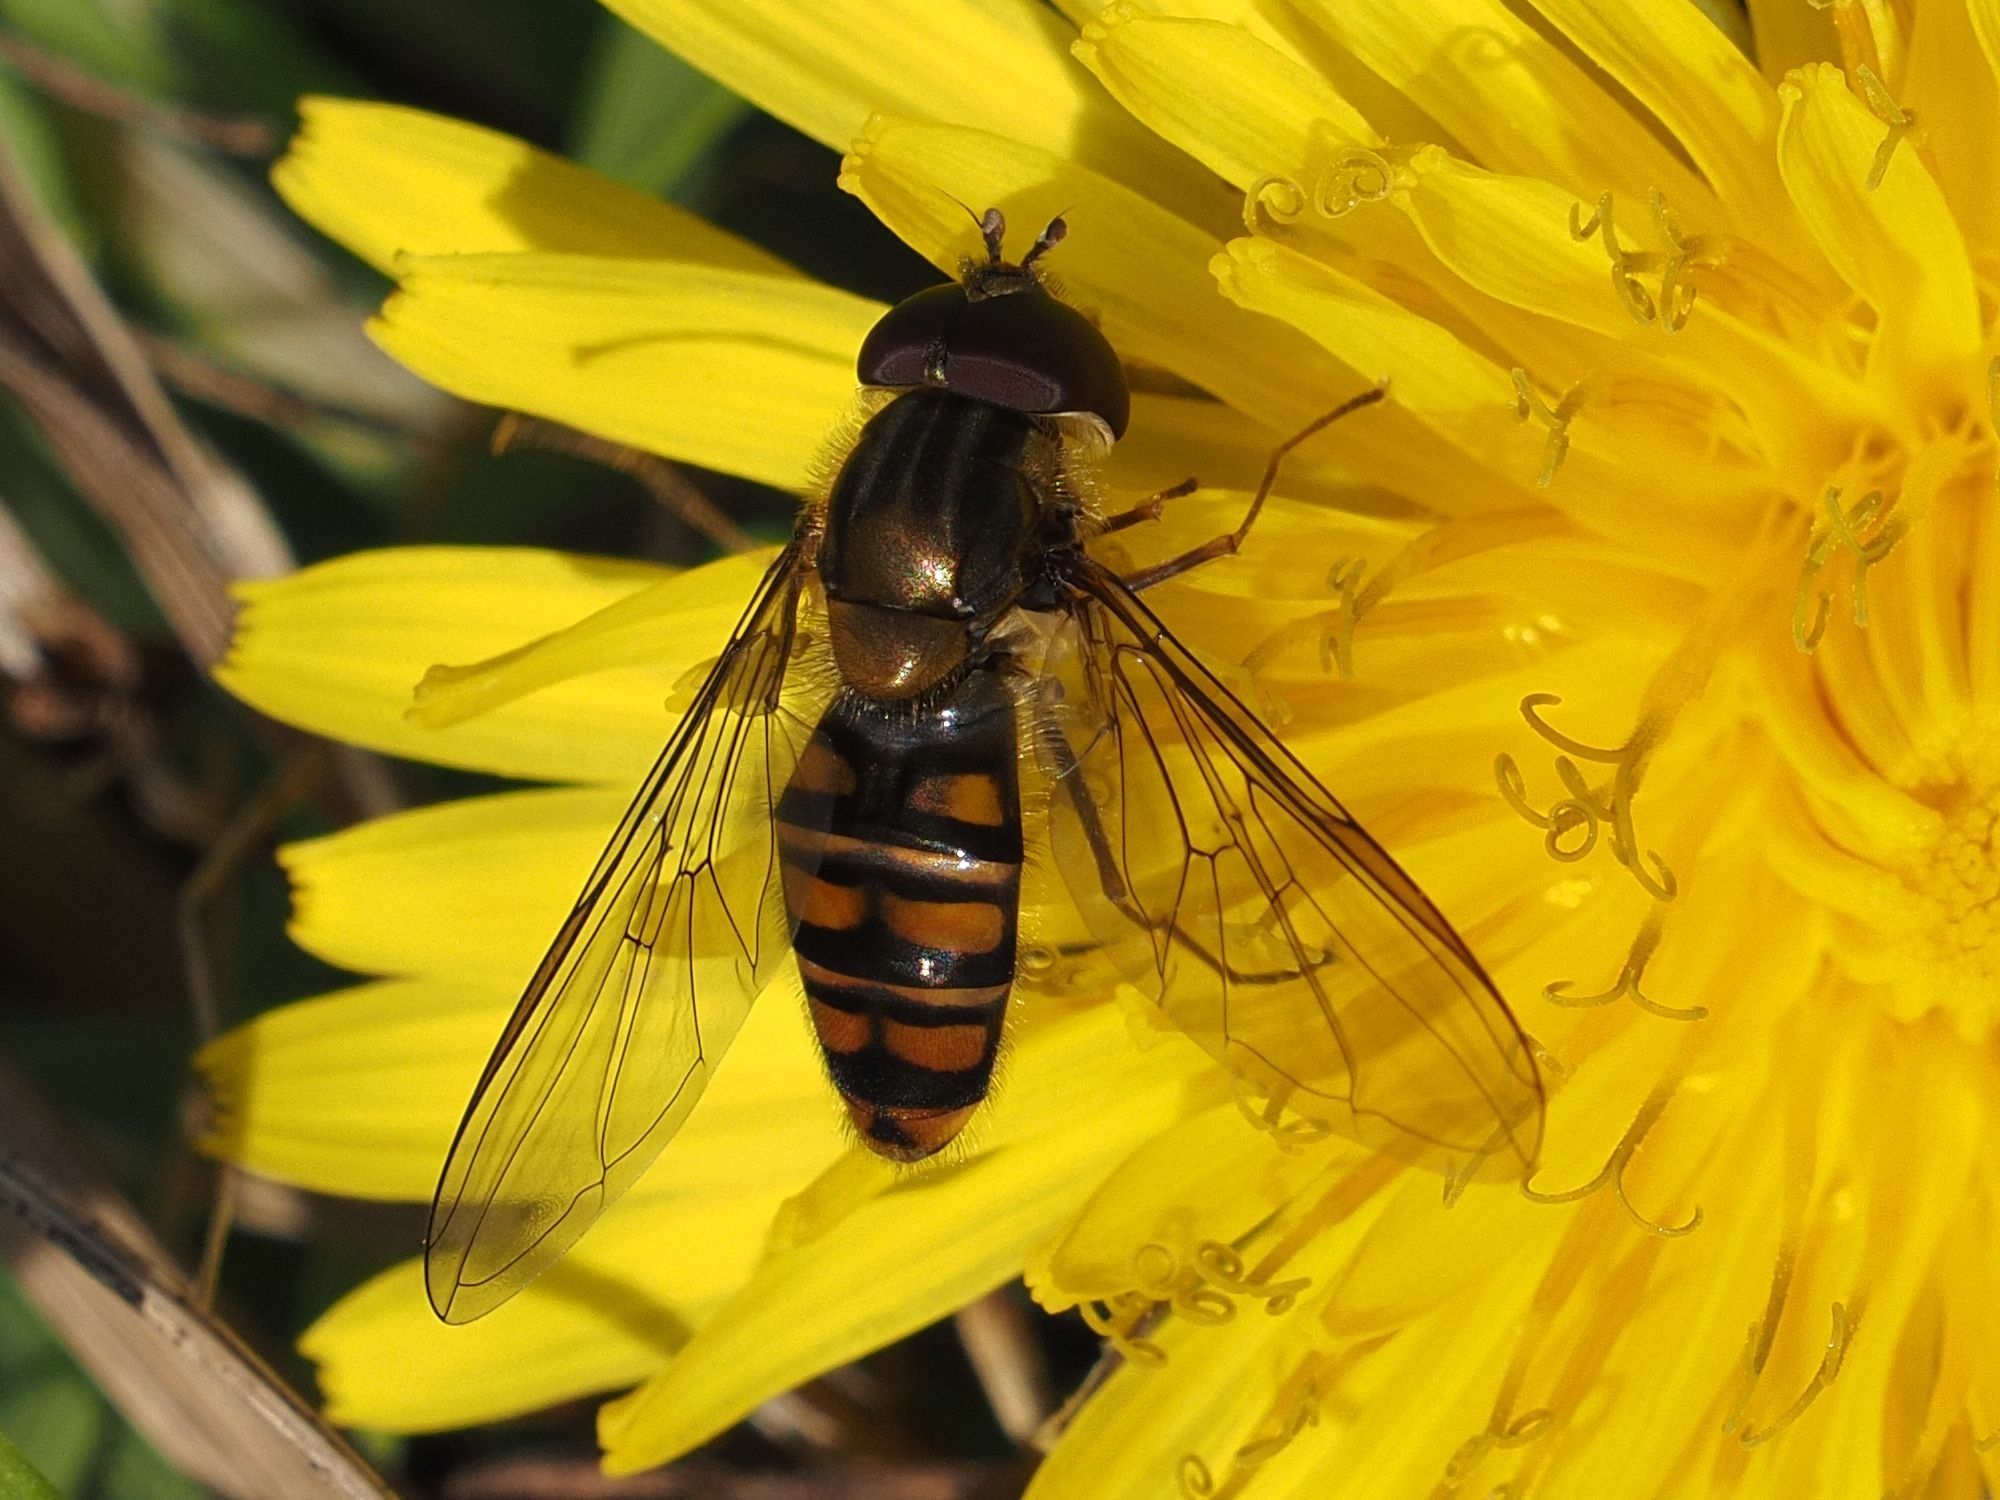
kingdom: Animalia
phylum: Arthropoda
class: Insecta
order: Diptera
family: Syrphidae
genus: Episyrphus
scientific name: Episyrphus balteatus
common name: Marmalade hoverfly
